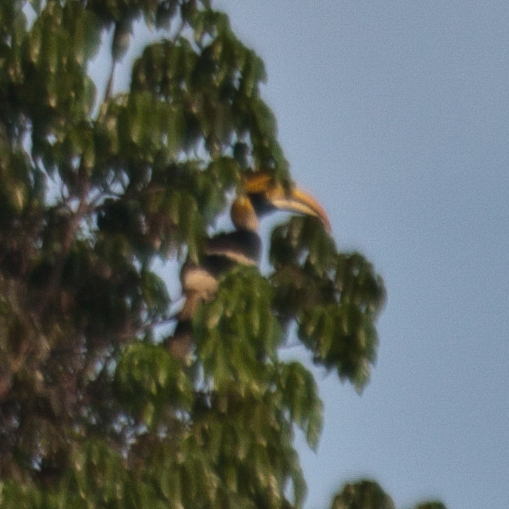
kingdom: Animalia
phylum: Chordata
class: Aves
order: Bucerotiformes
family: Bucerotidae
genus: Buceros
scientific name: Buceros bicornis
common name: Great hornbill
